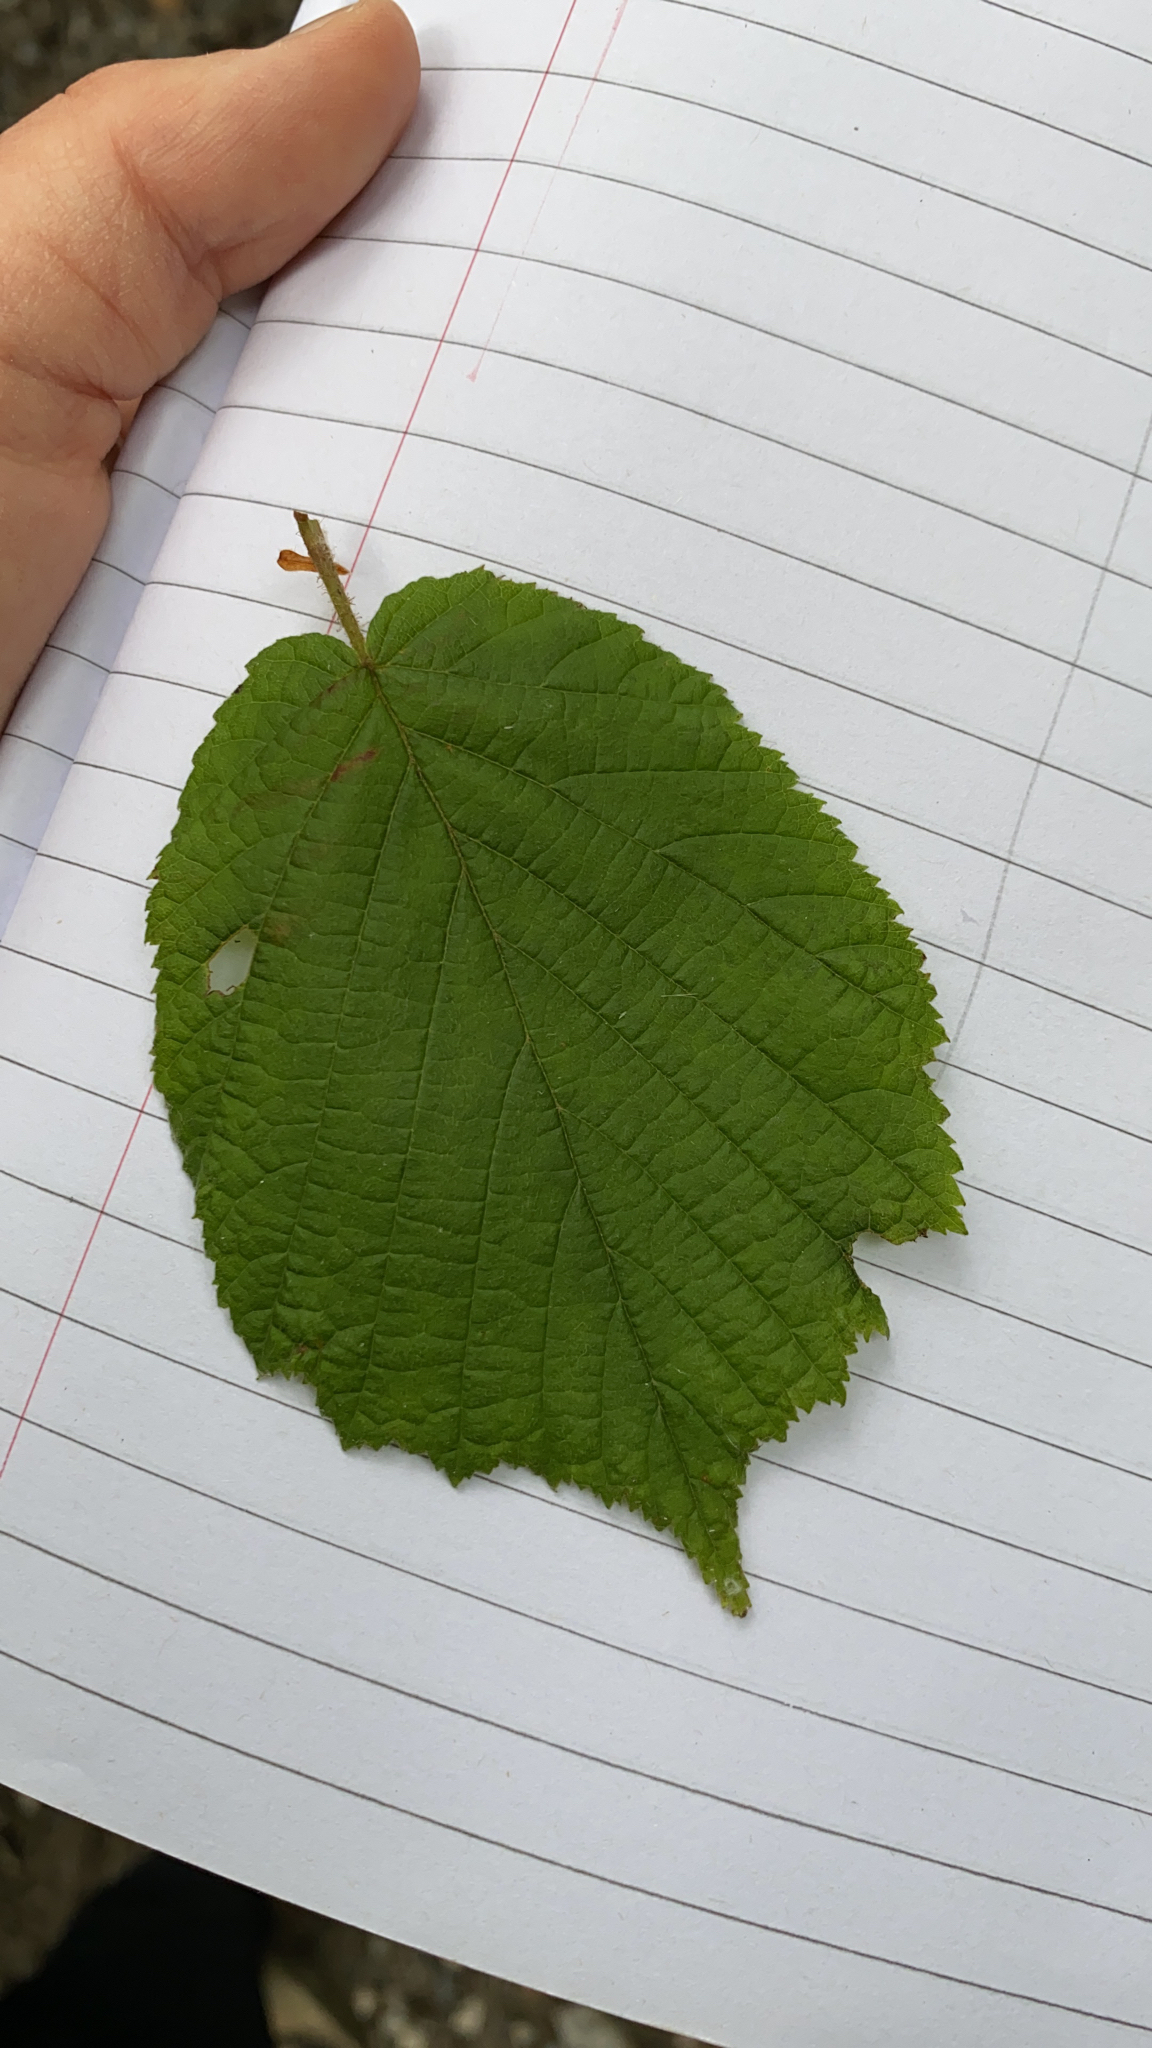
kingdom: Plantae
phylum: Tracheophyta
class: Magnoliopsida
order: Fagales
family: Betulaceae
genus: Corylus
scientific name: Corylus avellana
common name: European hazel
